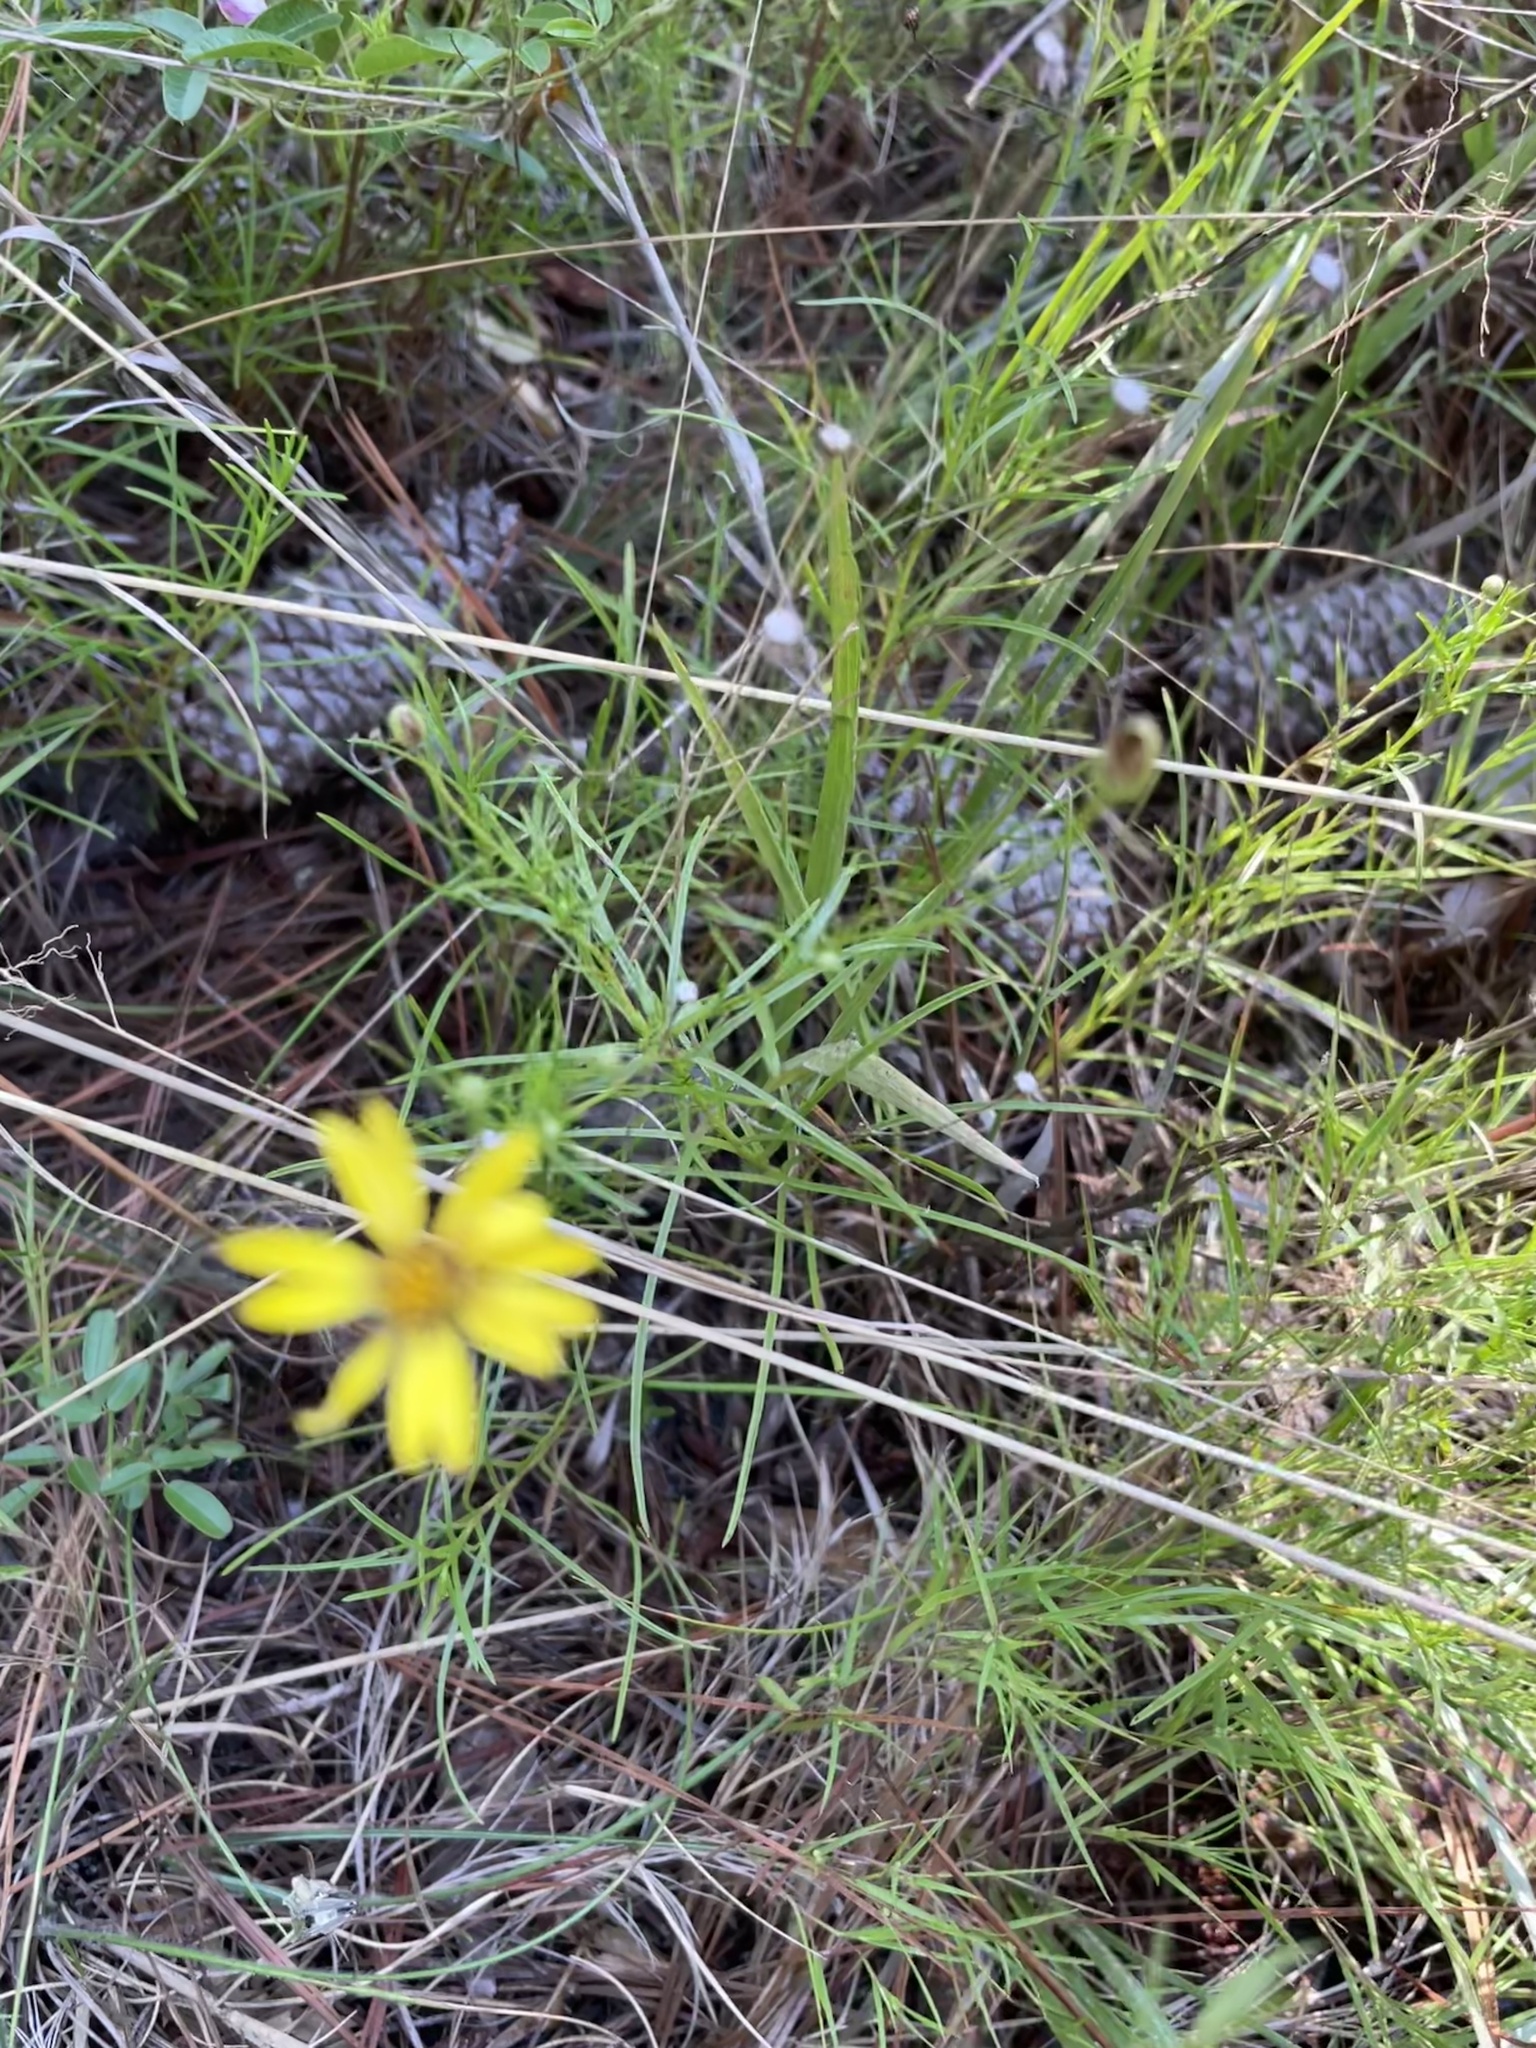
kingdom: Plantae
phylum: Tracheophyta
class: Magnoliopsida
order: Asterales
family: Asteraceae
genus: Pityopsis
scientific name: Pityopsis pinifolia
